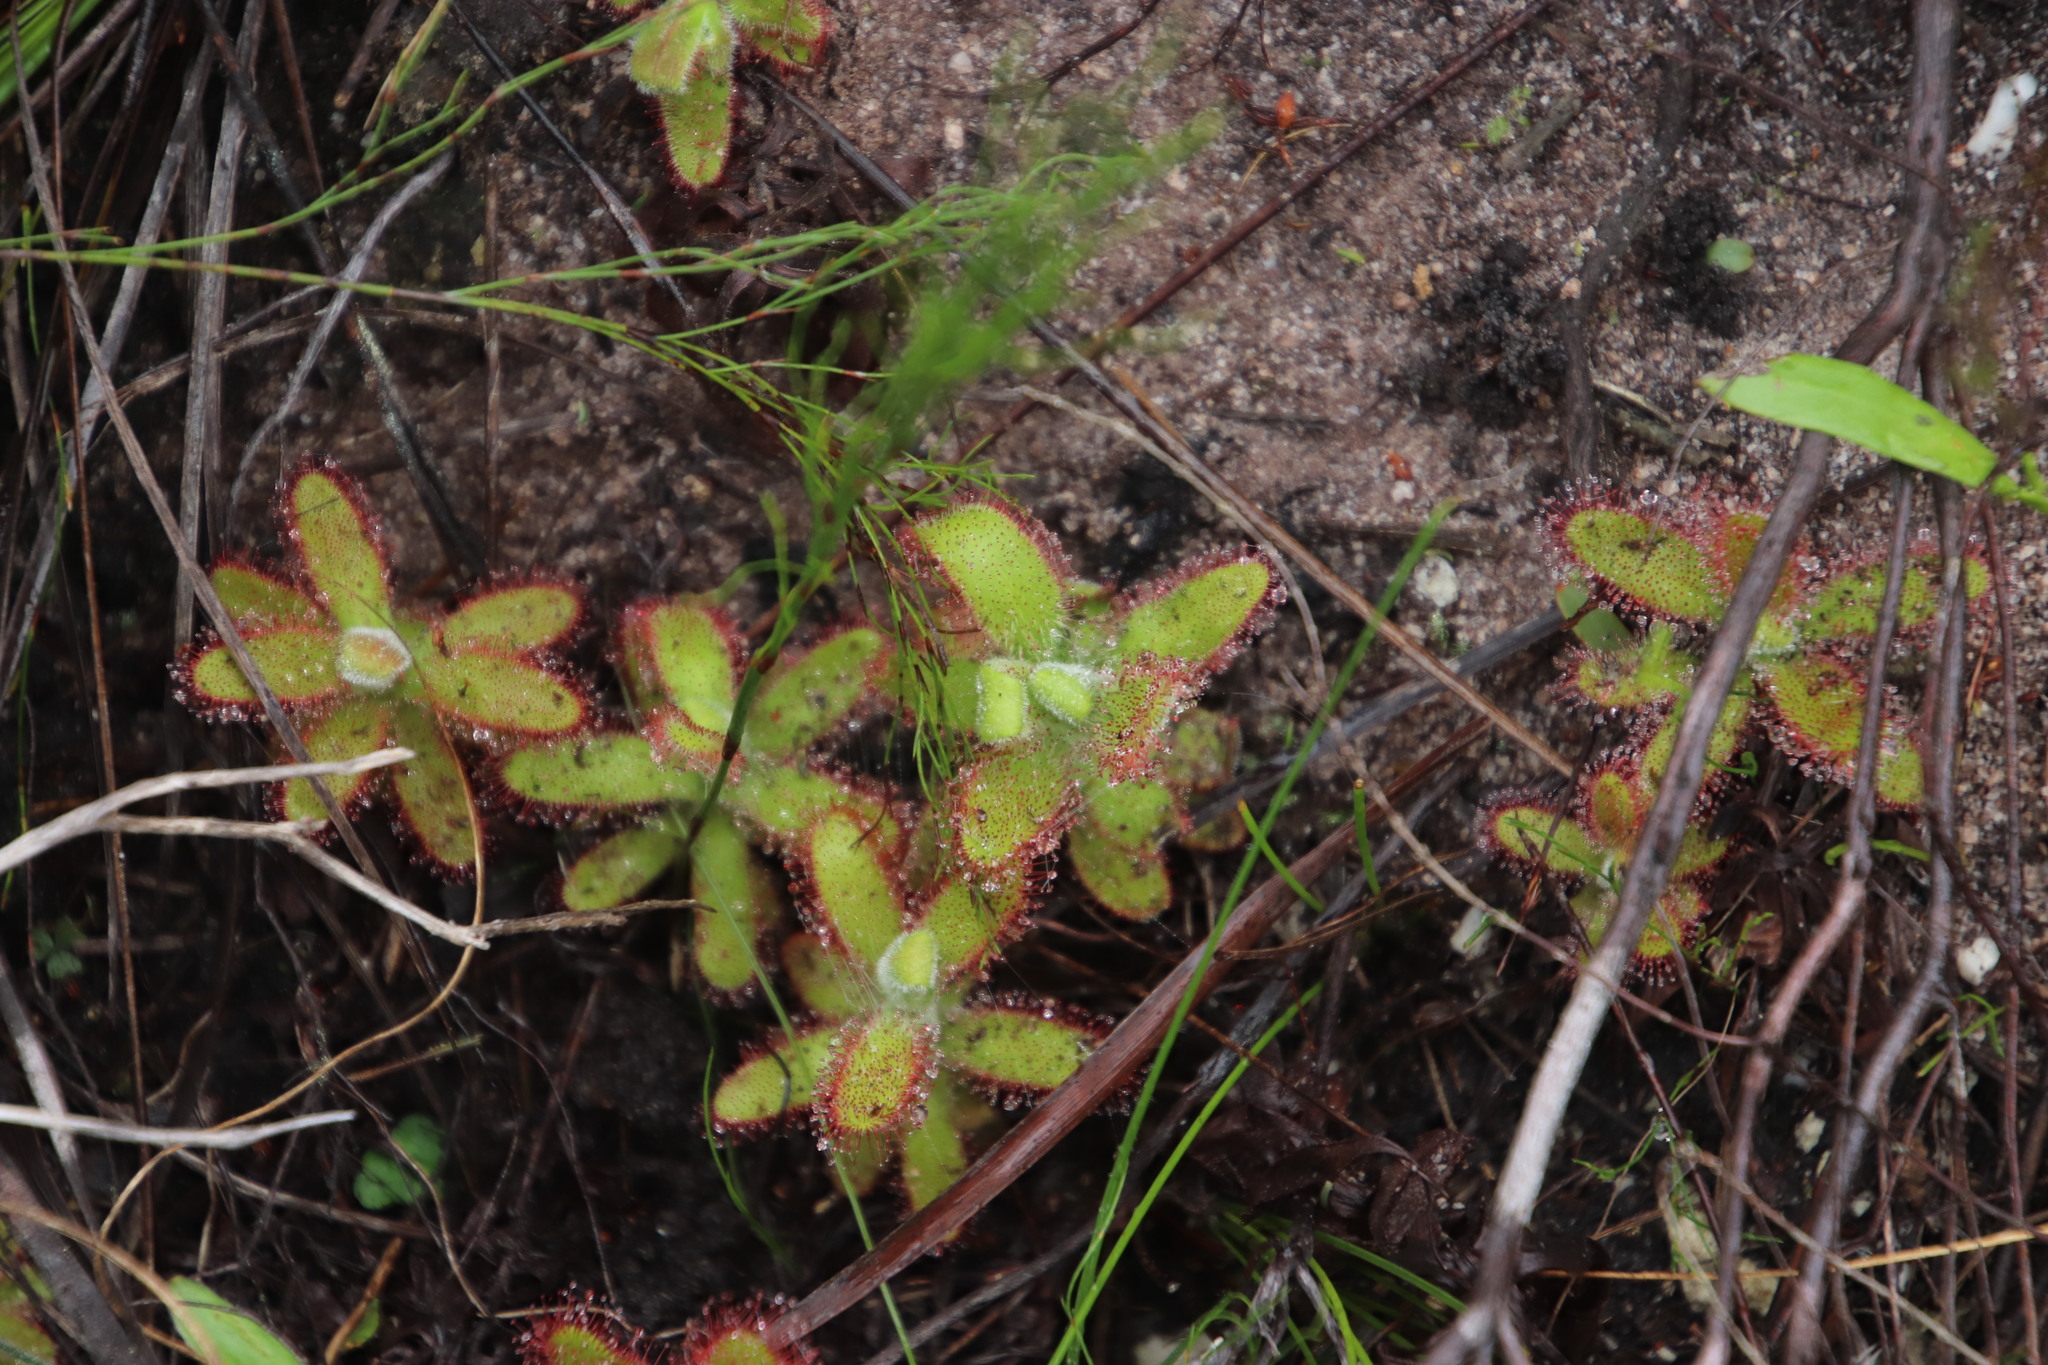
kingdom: Plantae
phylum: Tracheophyta
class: Magnoliopsida
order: Caryophyllales
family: Droseraceae
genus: Drosera
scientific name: Drosera hilaris
